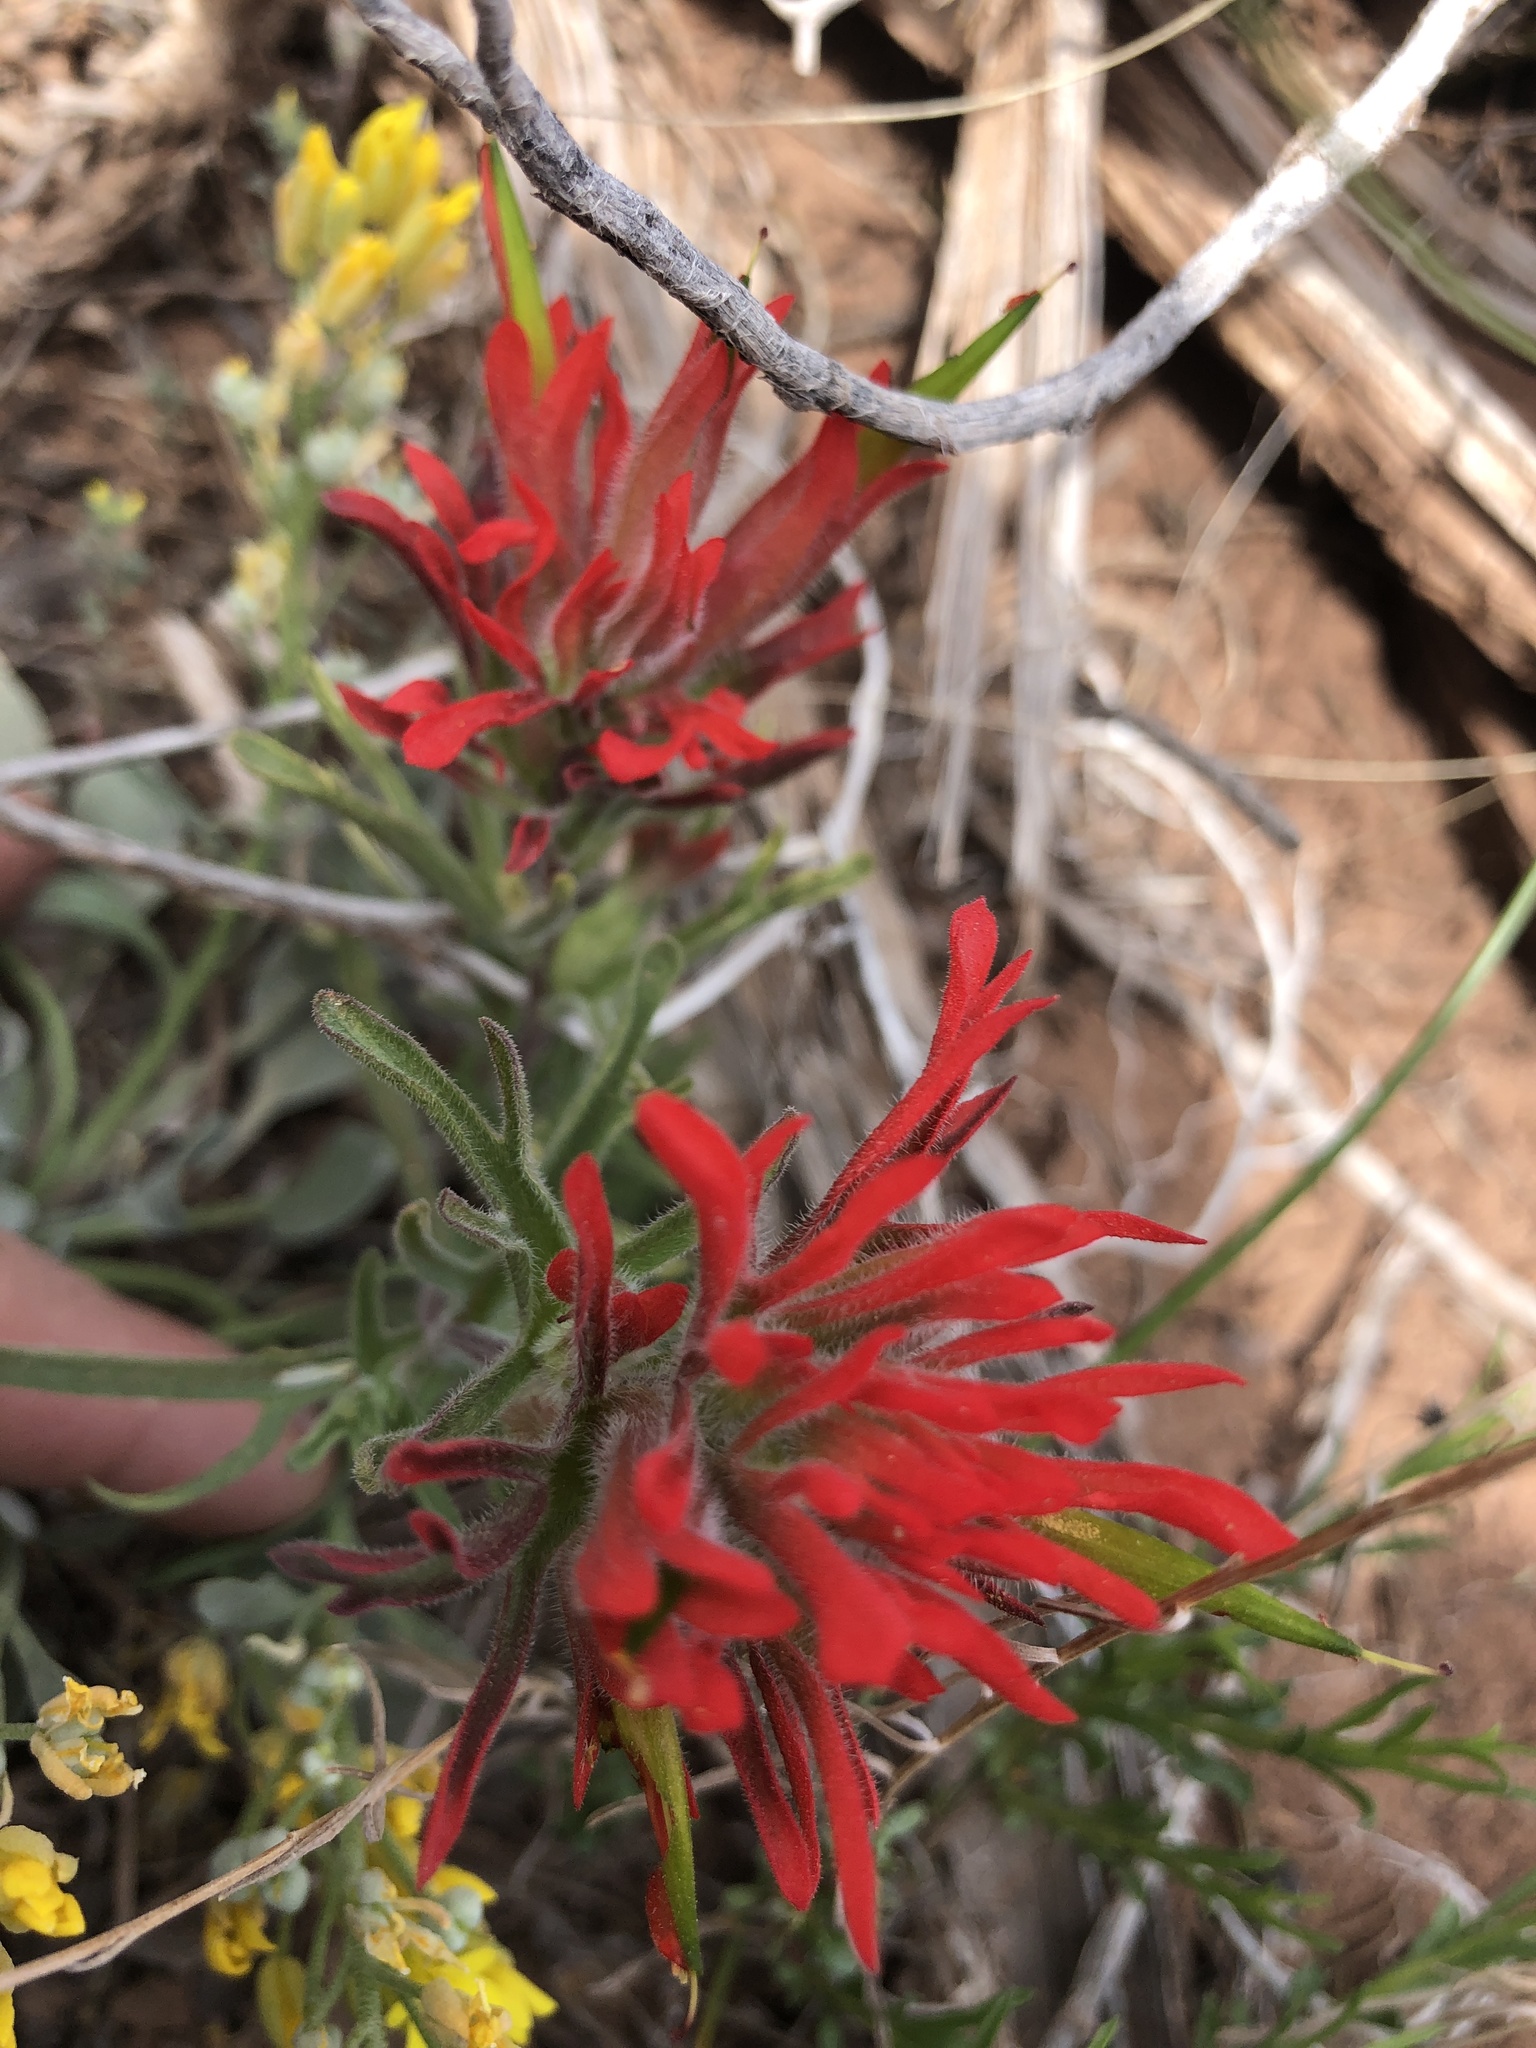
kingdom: Plantae
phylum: Tracheophyta
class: Magnoliopsida
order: Lamiales
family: Orobanchaceae
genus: Castilleja
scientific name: Castilleja chromosa
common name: Desert paintbrush
